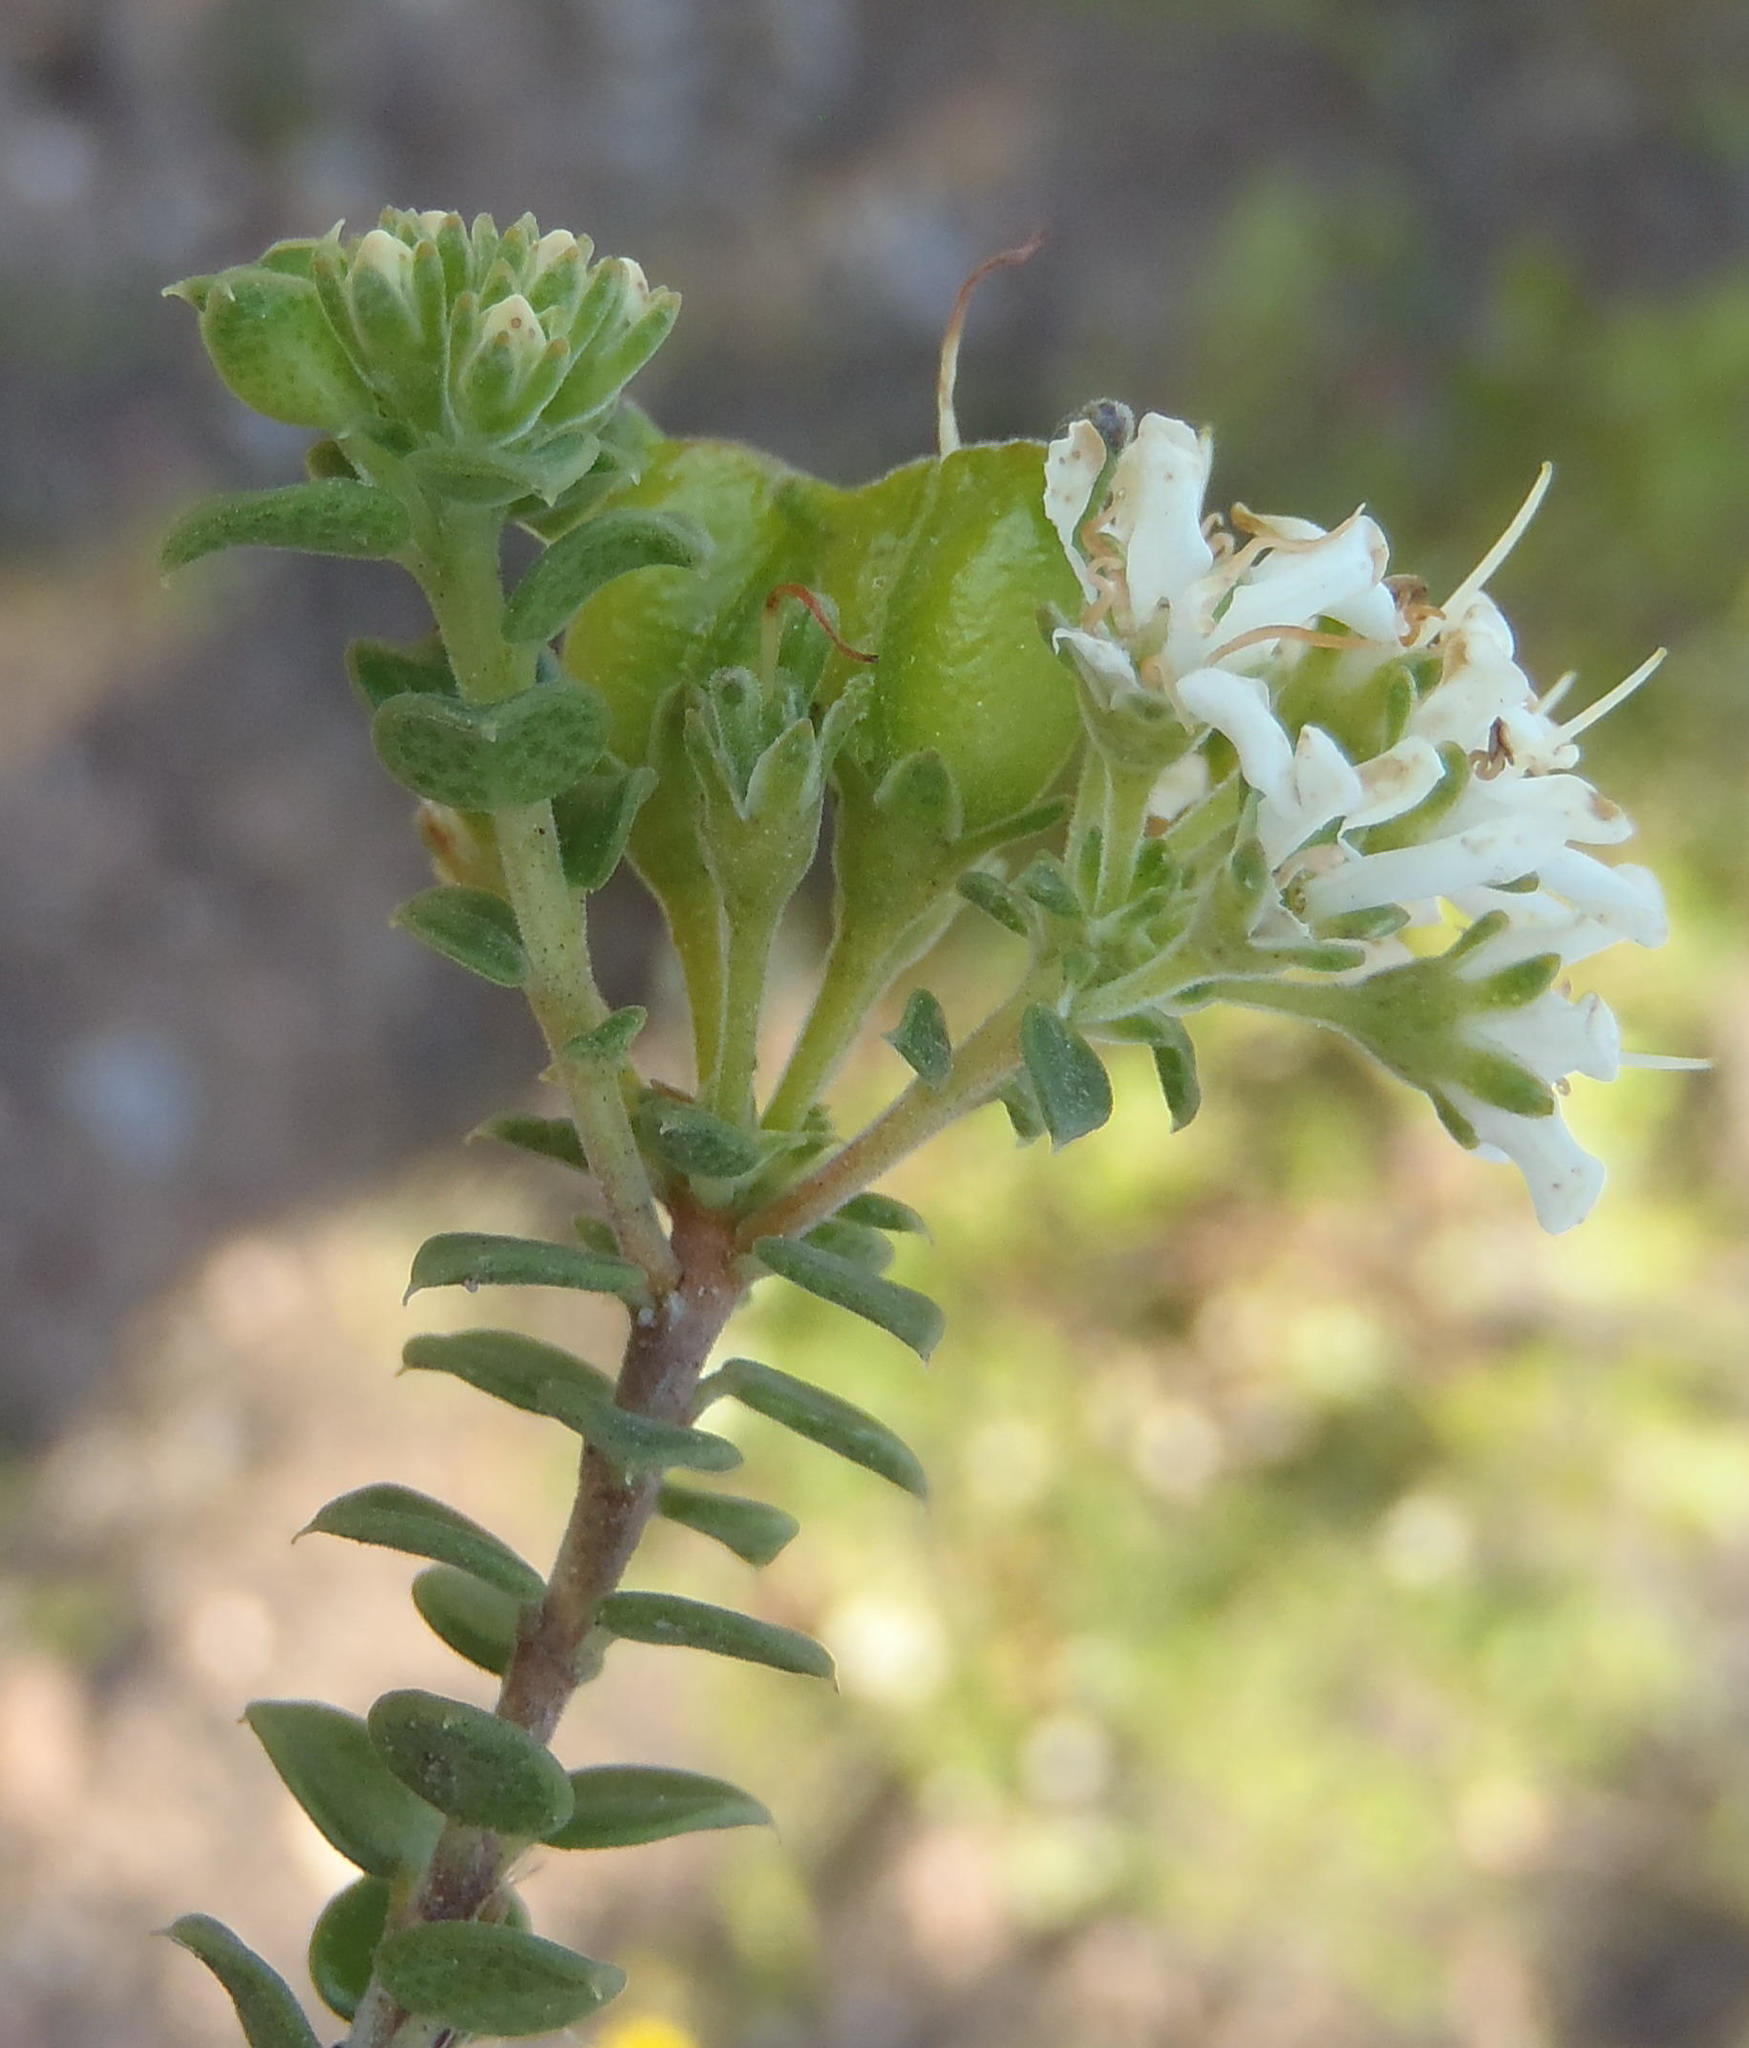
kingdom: Plantae
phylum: Tracheophyta
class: Magnoliopsida
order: Sapindales
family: Rutaceae
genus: Agathosma
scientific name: Agathosma recurvifolia
